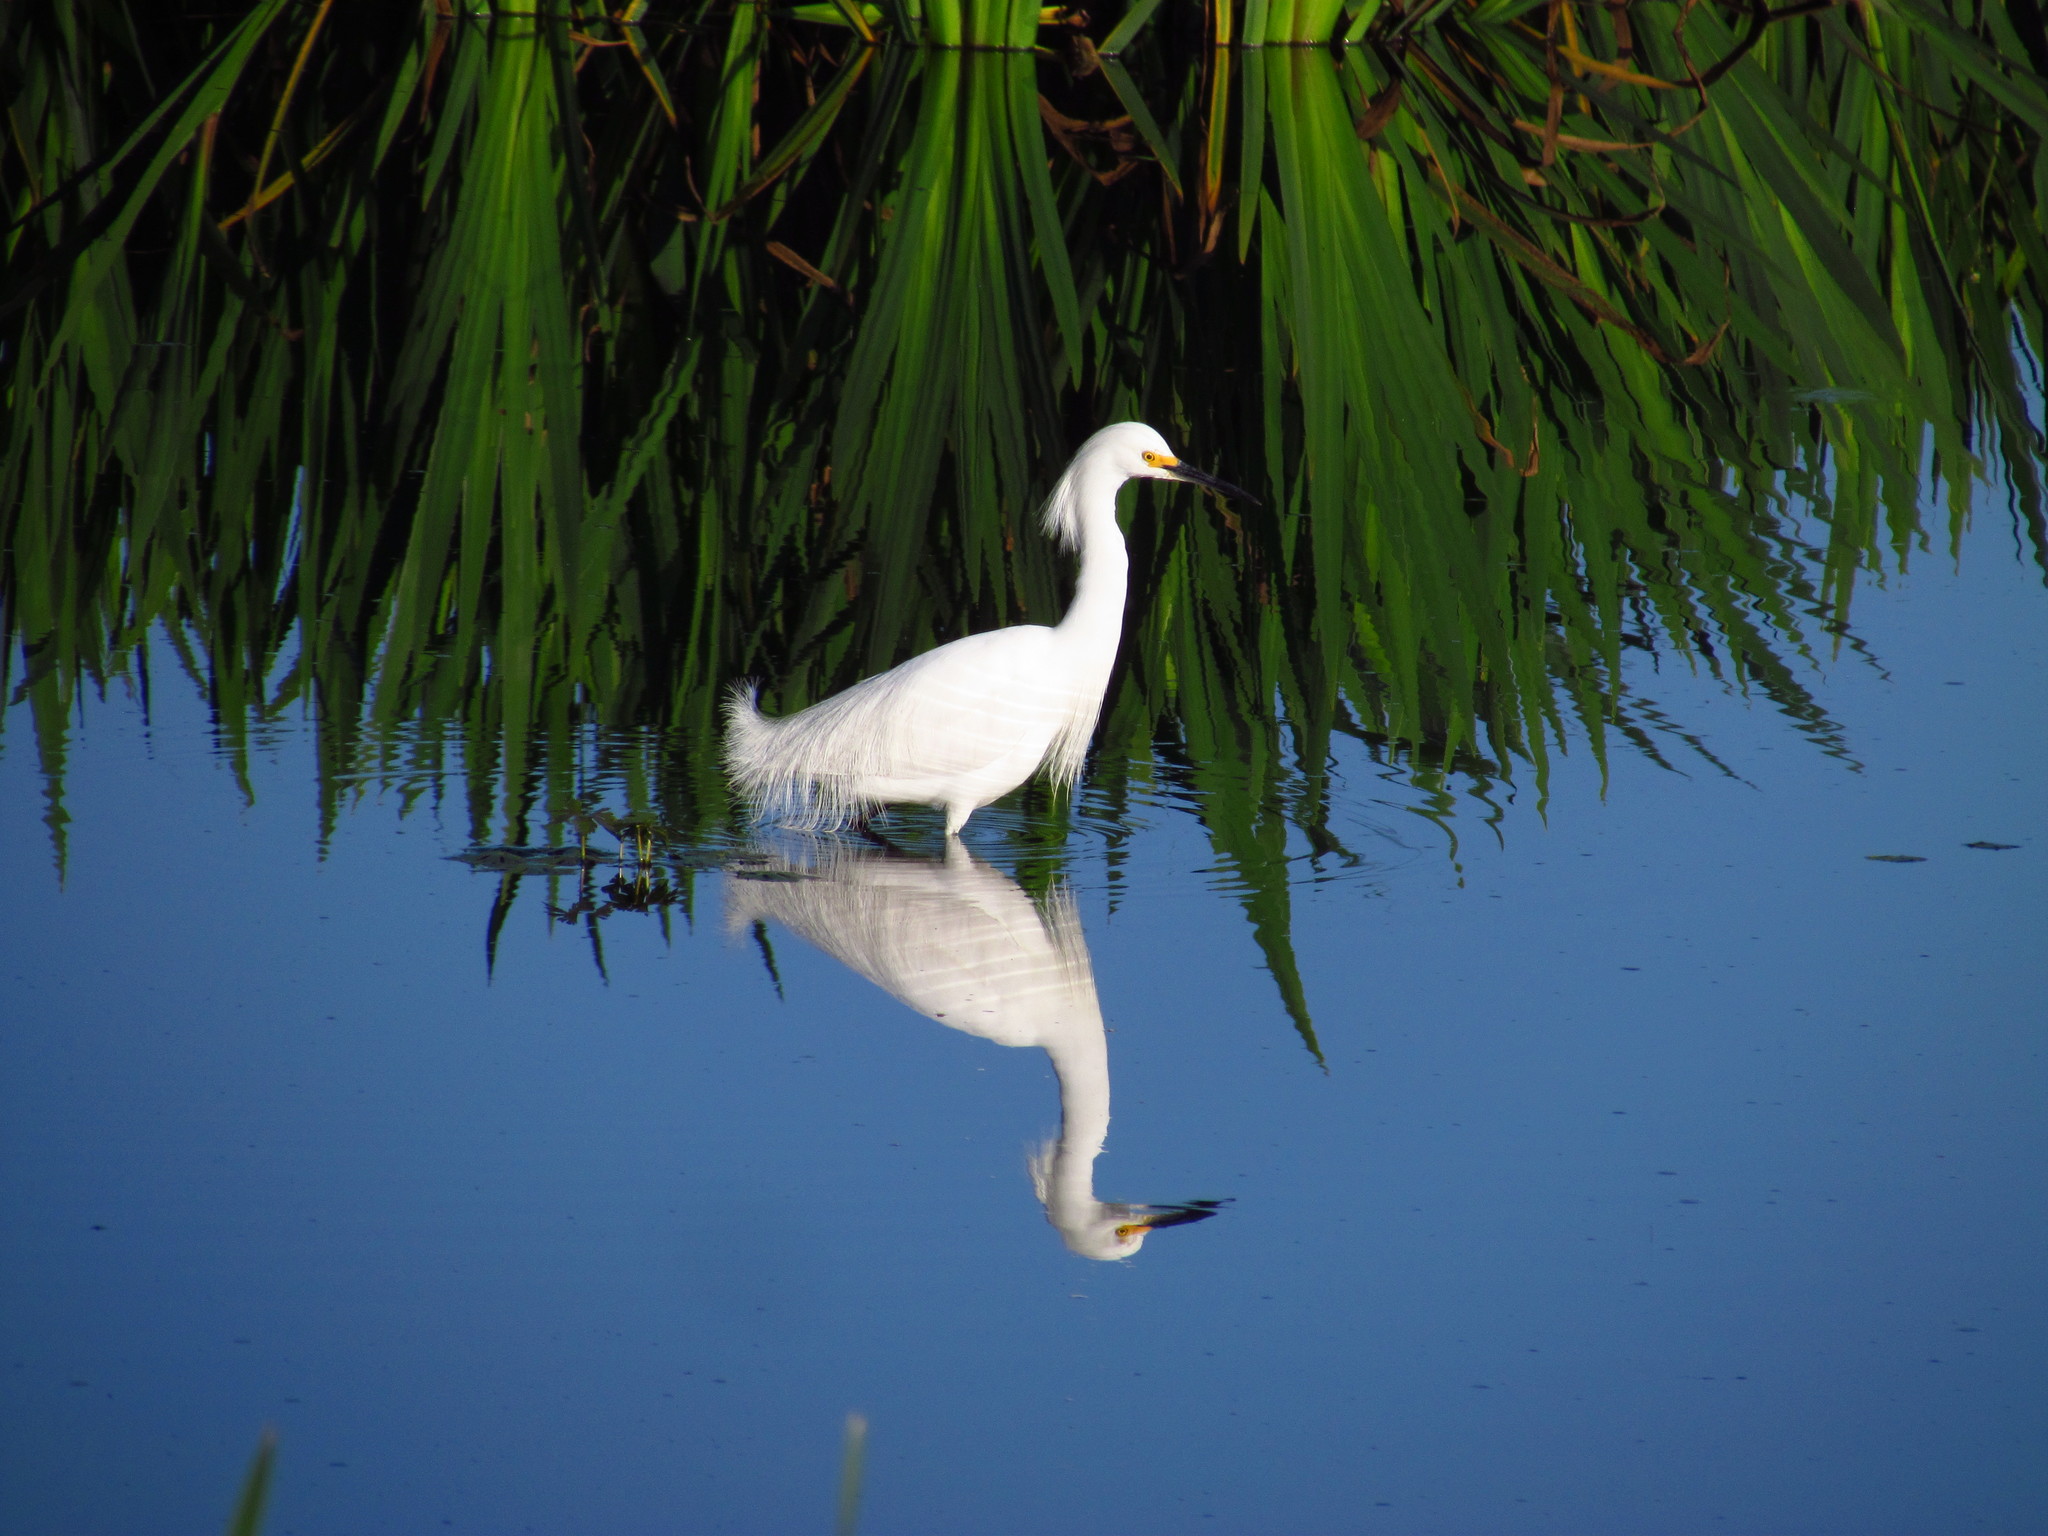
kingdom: Animalia
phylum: Chordata
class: Aves
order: Pelecaniformes
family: Ardeidae
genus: Egretta
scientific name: Egretta thula
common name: Snowy egret
